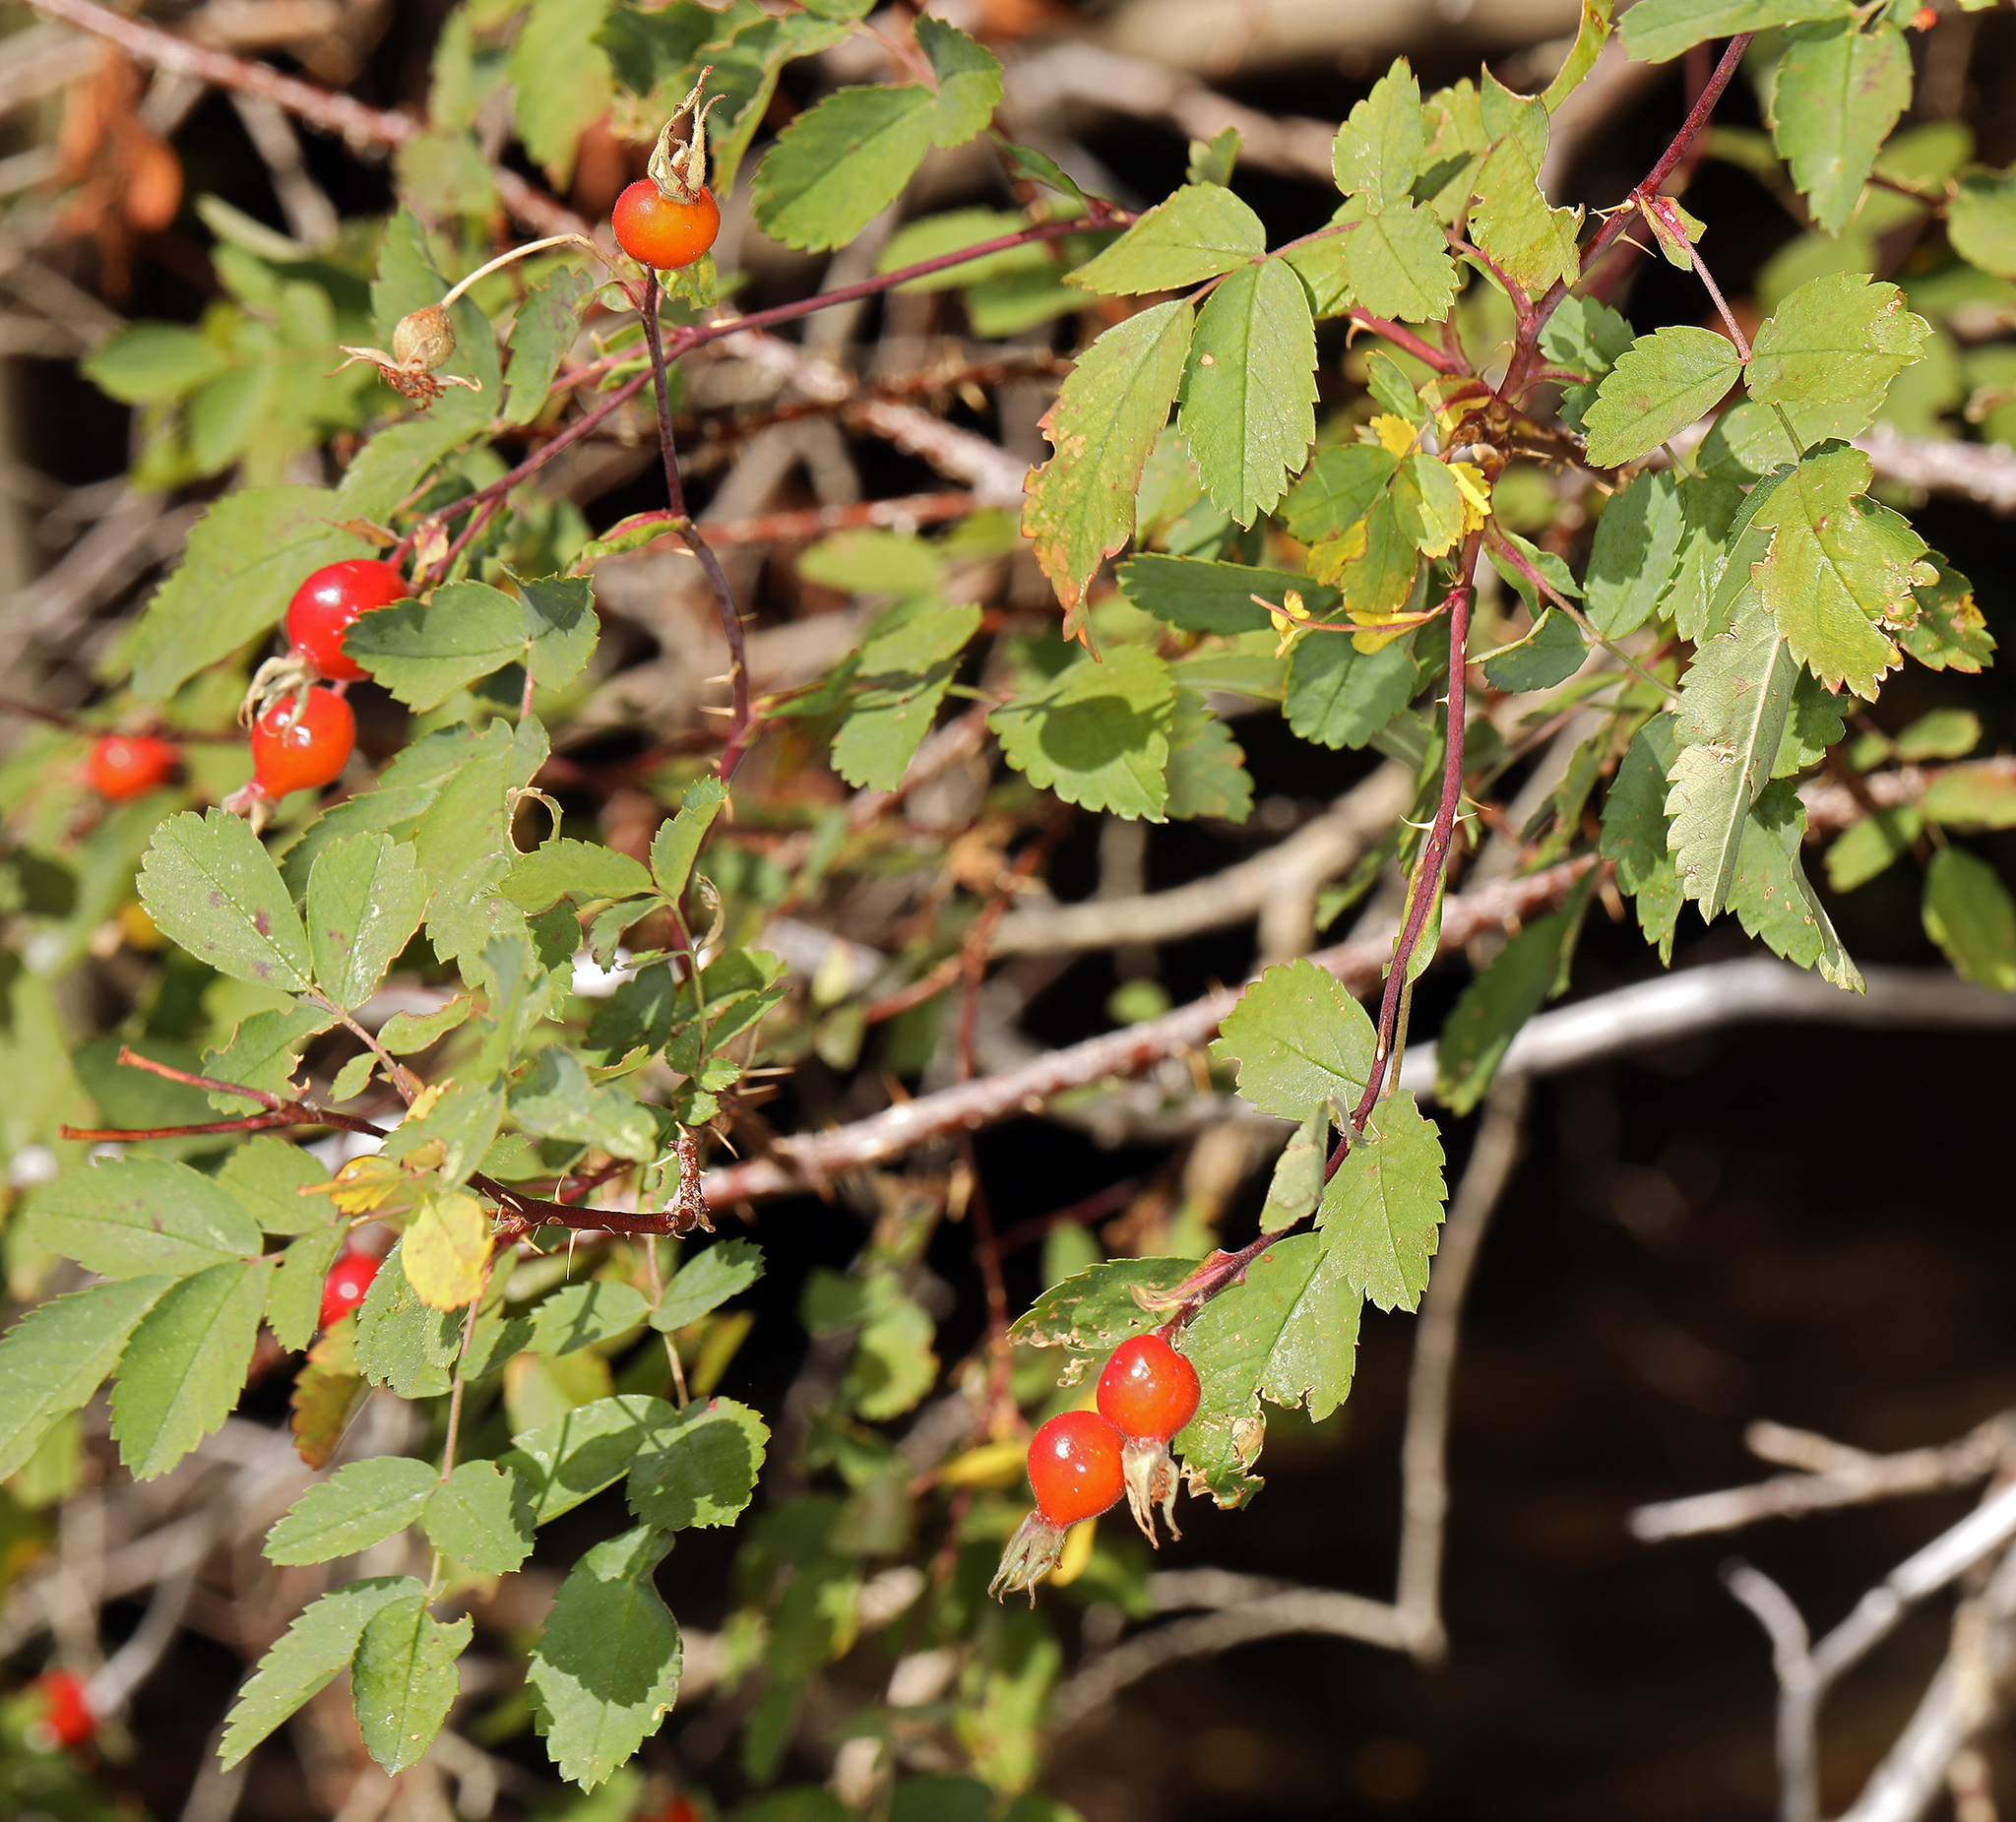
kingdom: Plantae
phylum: Tracheophyta
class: Magnoliopsida
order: Rosales
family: Rosaceae
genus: Rosa
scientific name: Rosa woodsii
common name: Woods's rose
